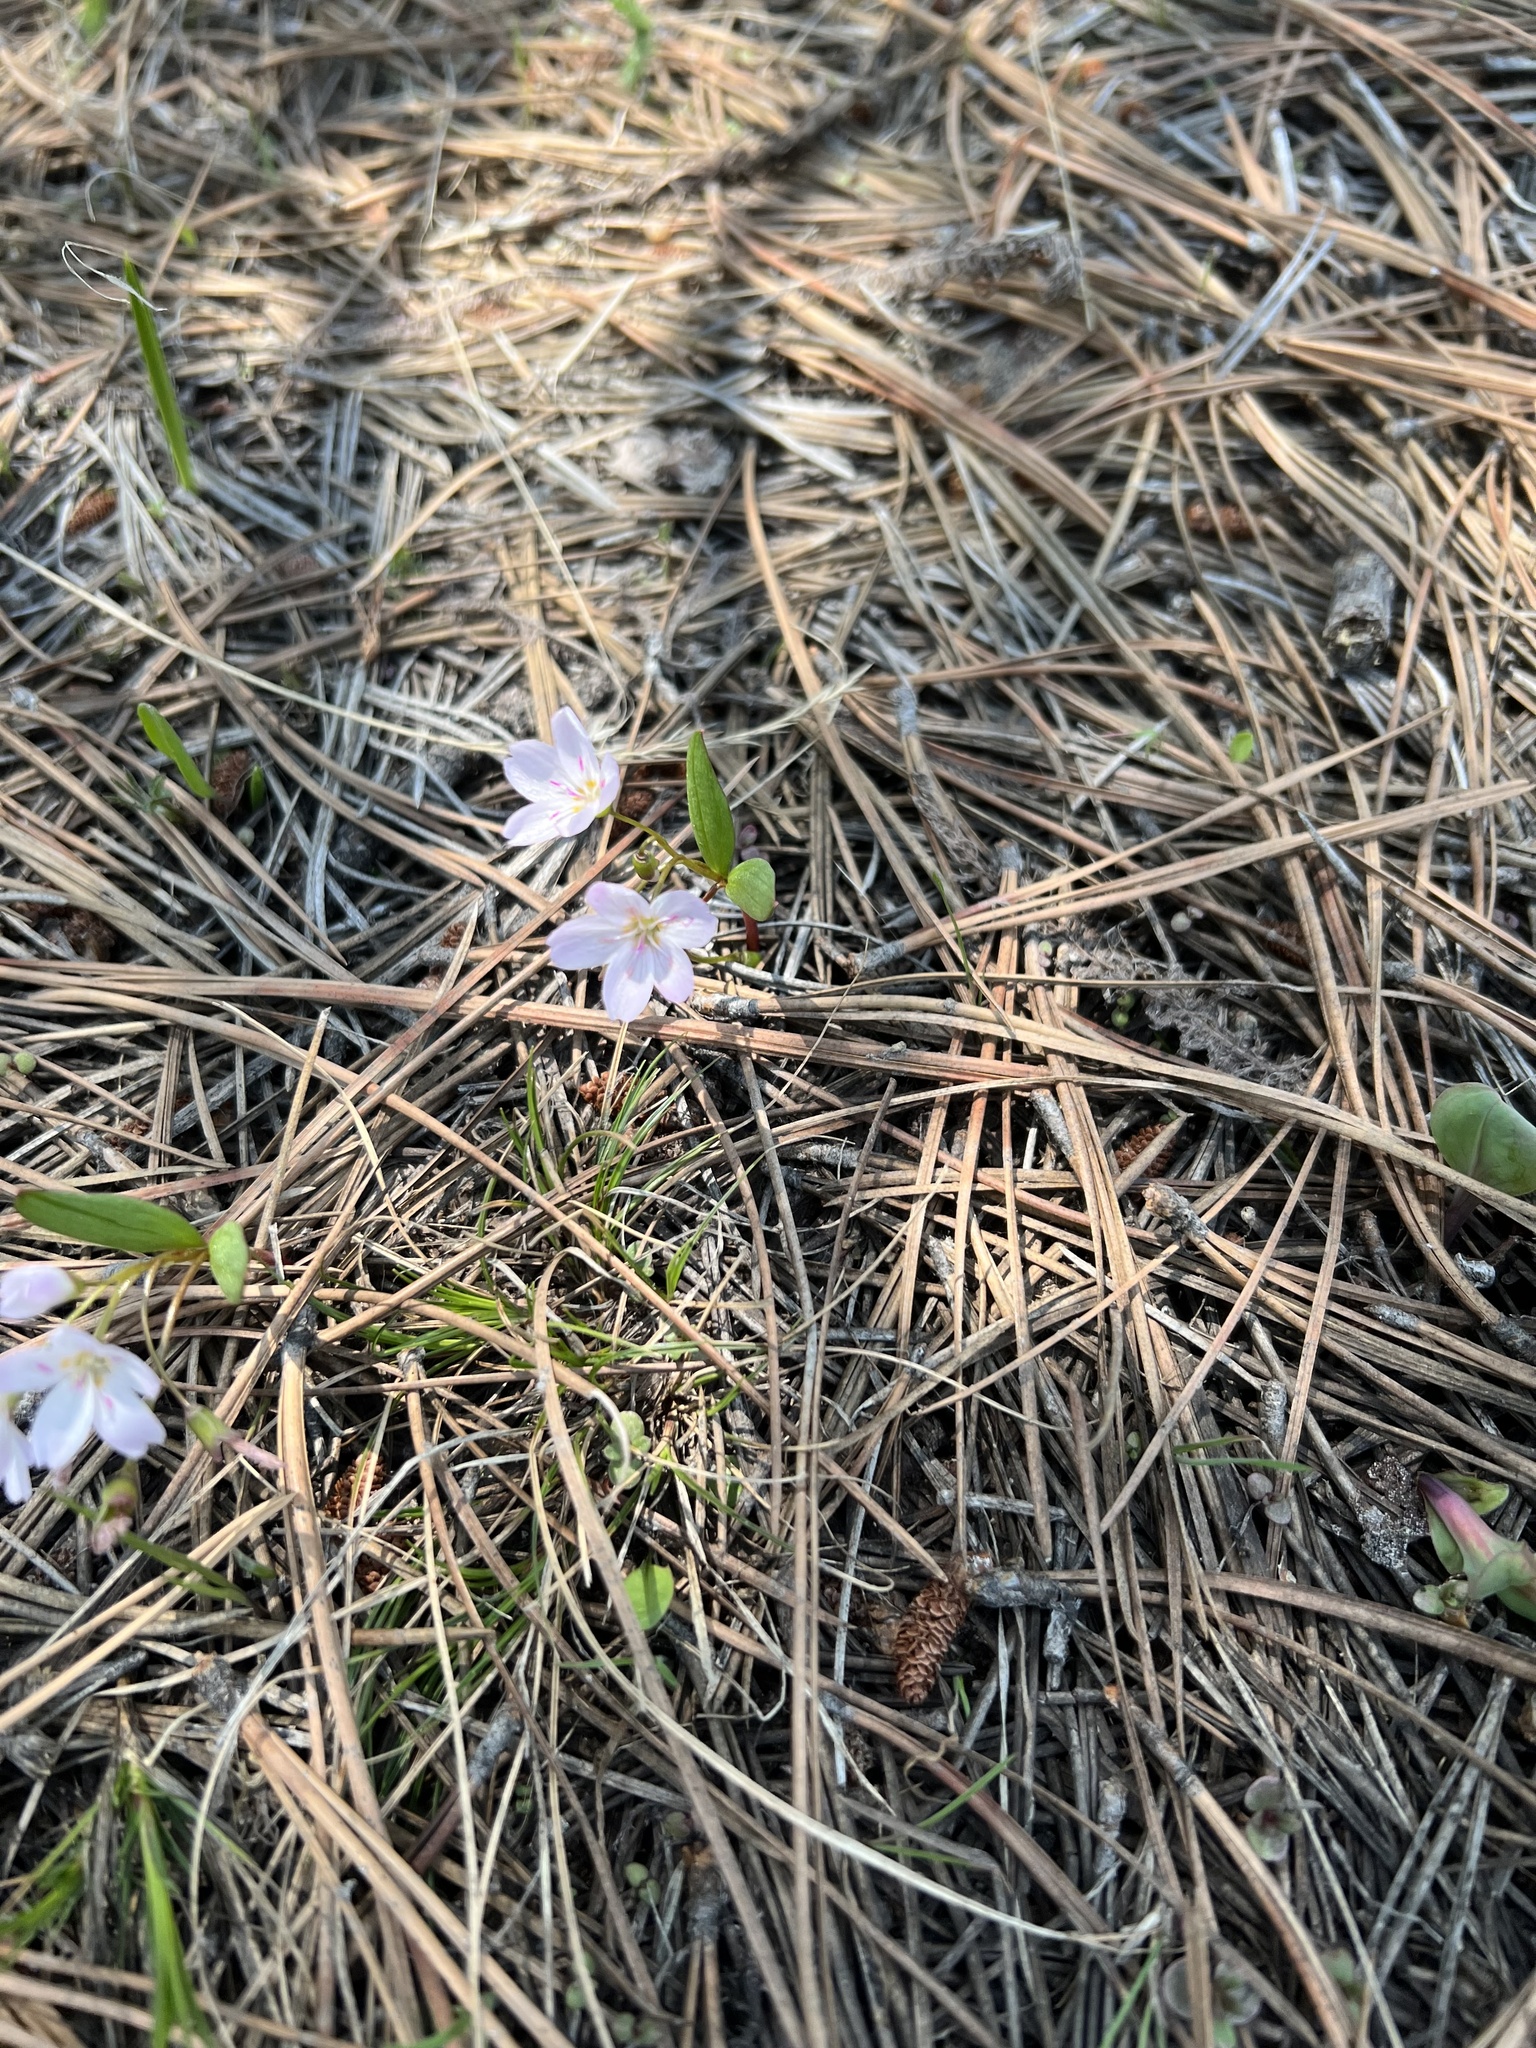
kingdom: Plantae
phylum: Tracheophyta
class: Magnoliopsida
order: Caryophyllales
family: Montiaceae
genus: Claytonia
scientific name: Claytonia lanceolata
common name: Western spring-beauty
